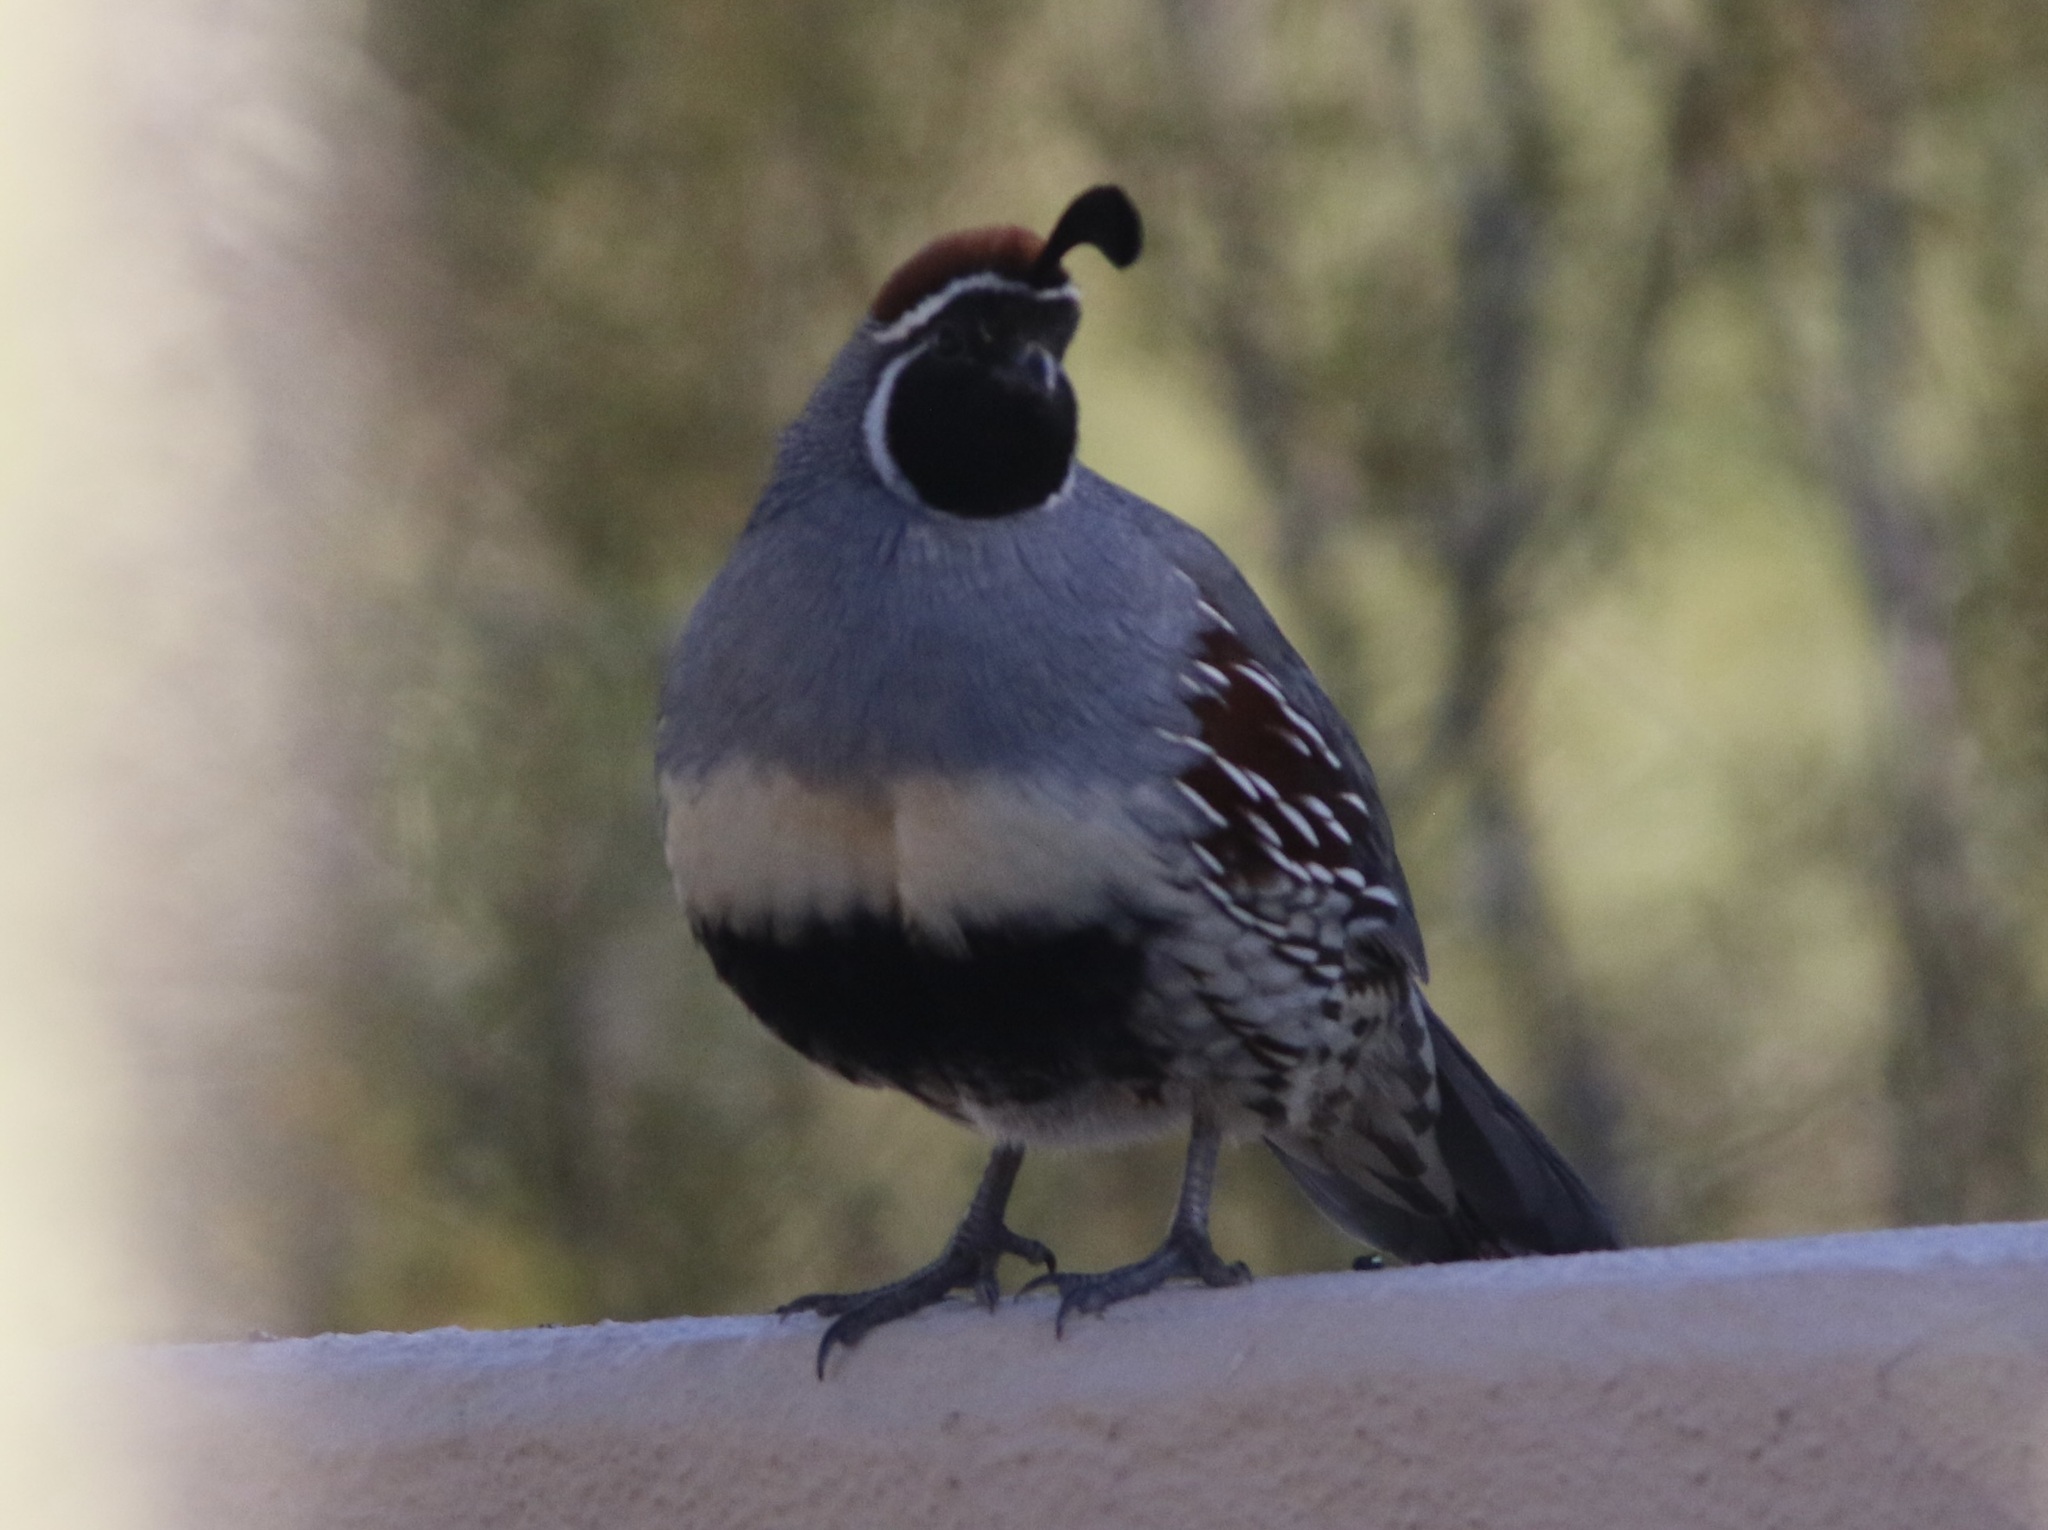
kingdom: Animalia
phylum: Chordata
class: Aves
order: Galliformes
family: Odontophoridae
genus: Callipepla
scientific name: Callipepla gambelii
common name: Gambel's quail
